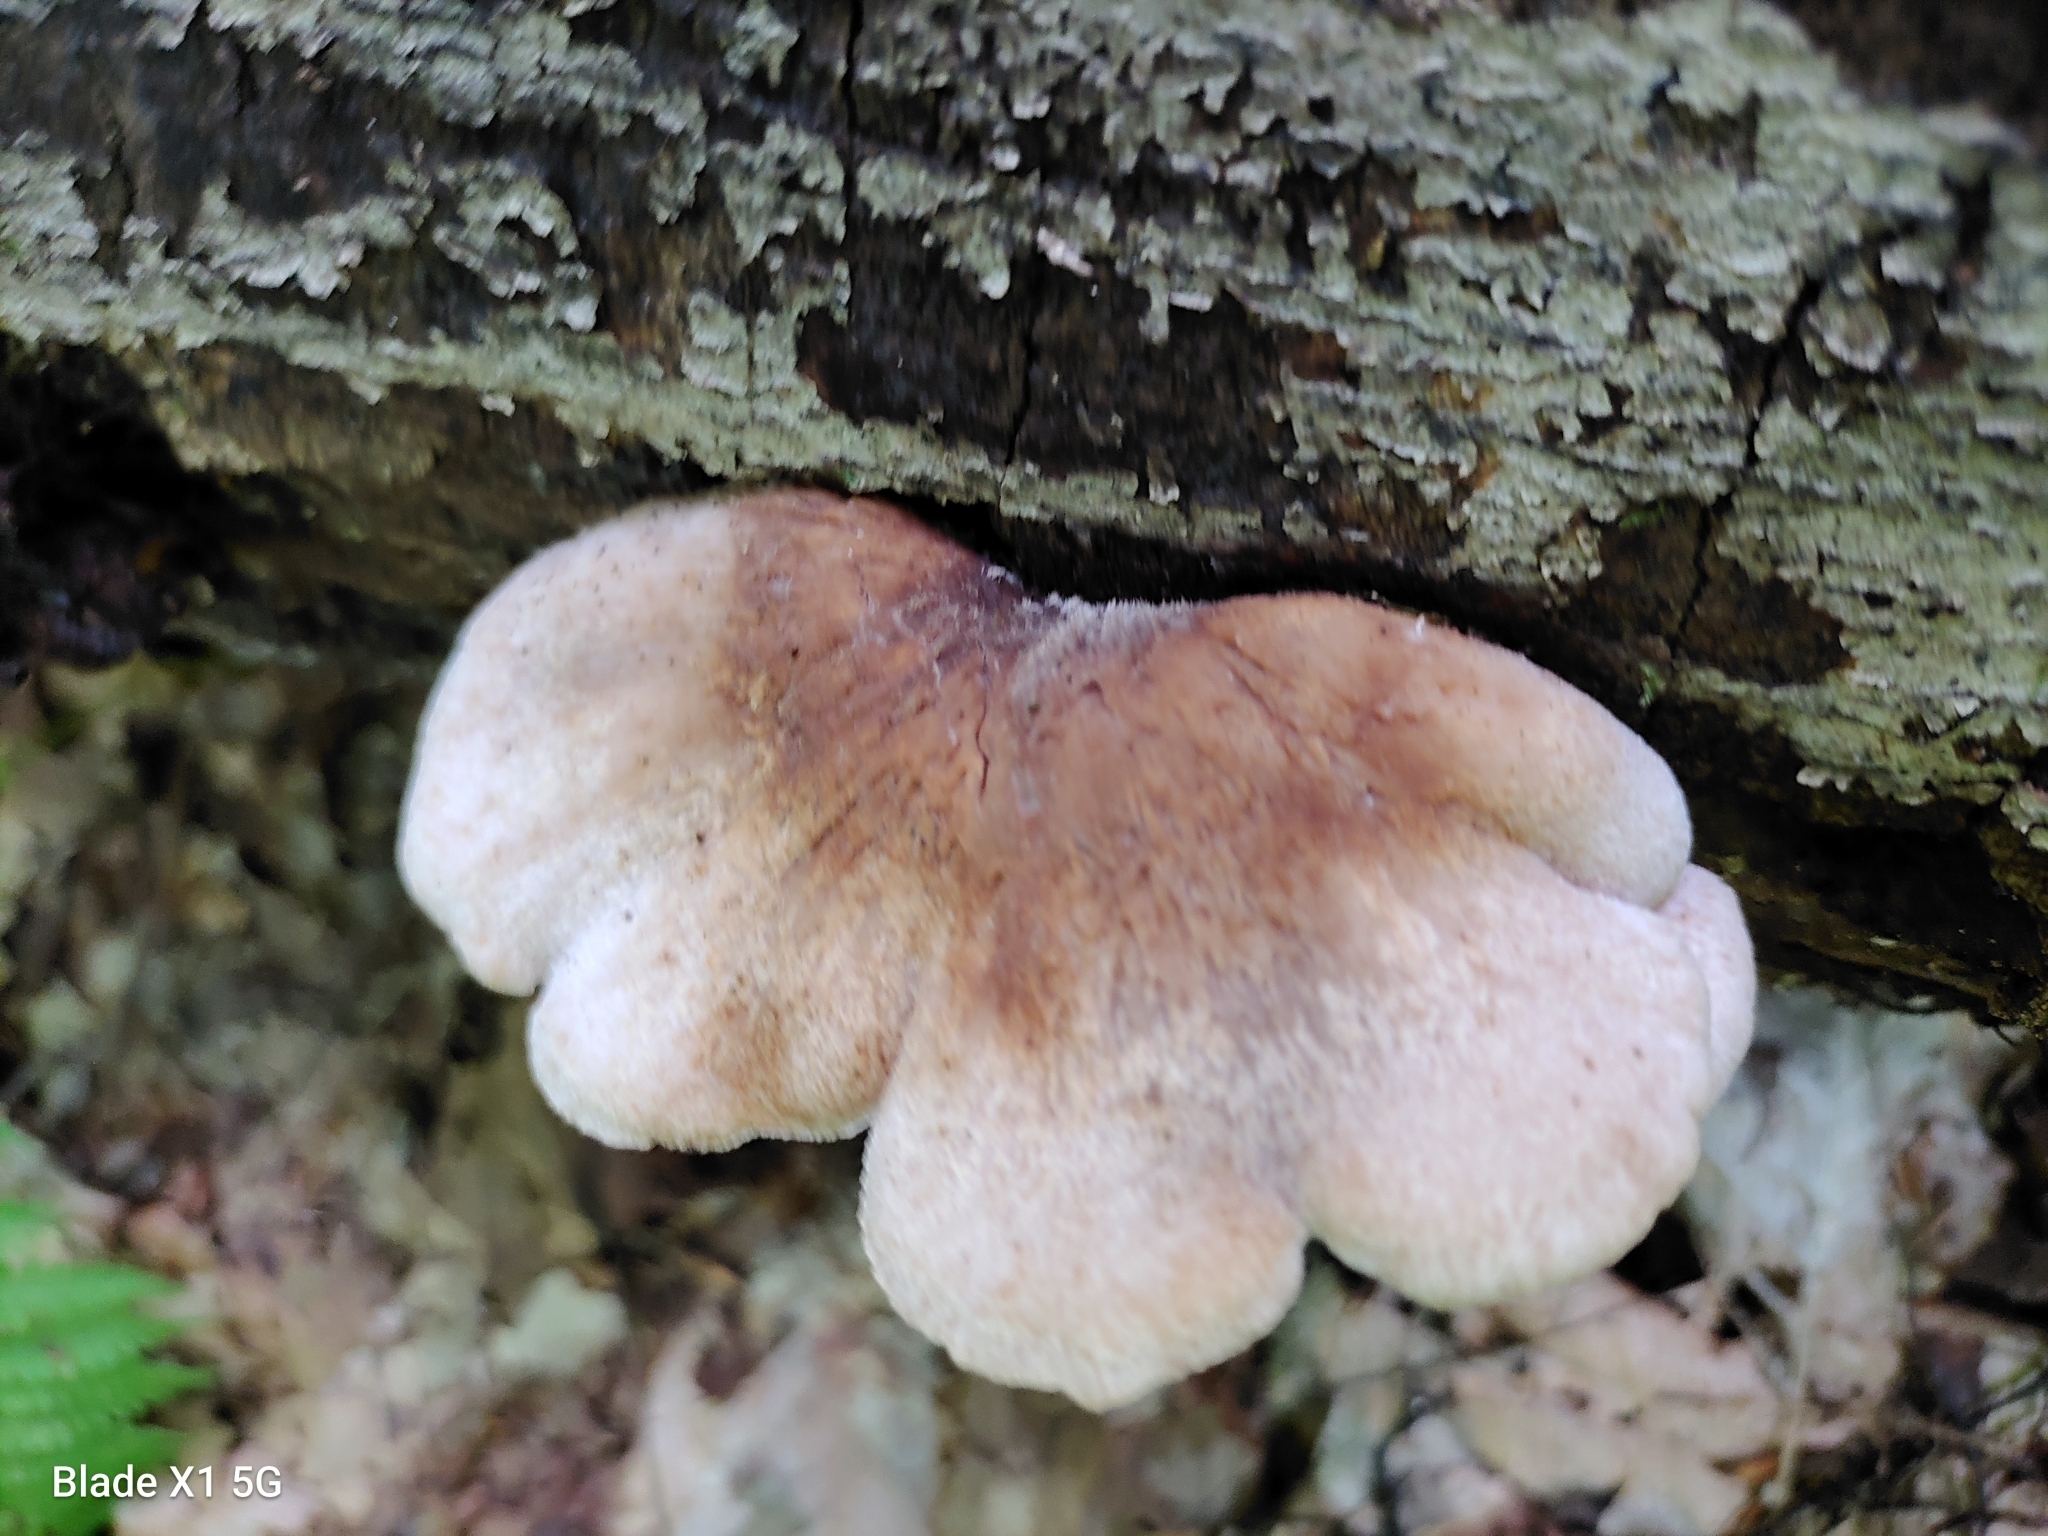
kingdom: Fungi
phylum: Basidiomycota
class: Agaricomycetes
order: Russulales
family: Auriscalpiaceae
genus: Lentinellus
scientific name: Lentinellus ursinus
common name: Bear lentinus
